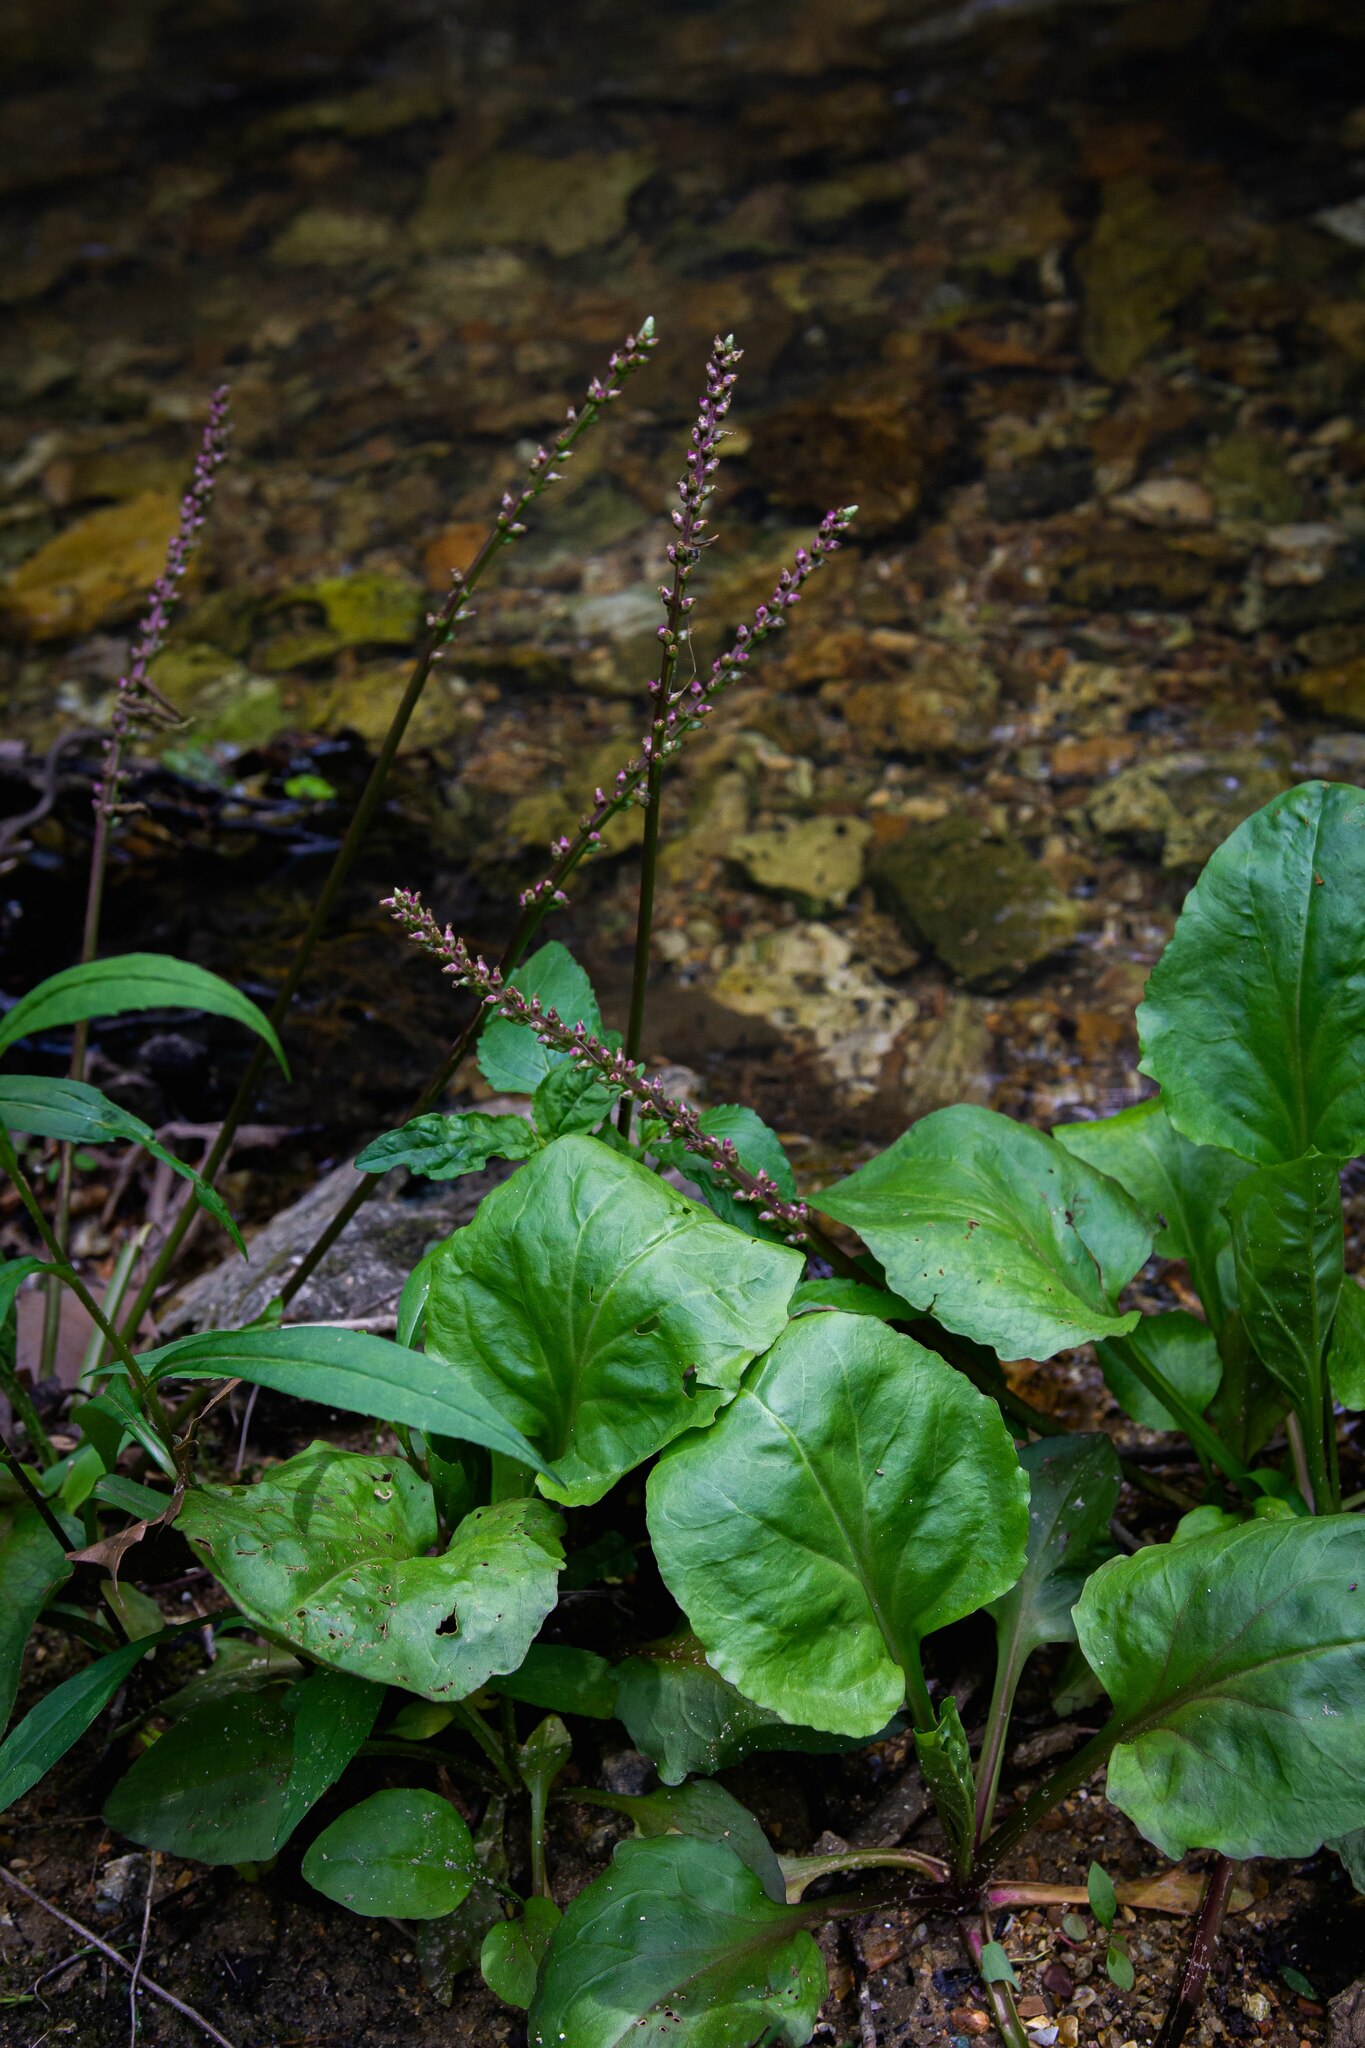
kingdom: Plantae
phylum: Tracheophyta
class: Magnoliopsida
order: Lamiales
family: Plantaginaceae
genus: Plantago
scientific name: Plantago cordata
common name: Kingroot
